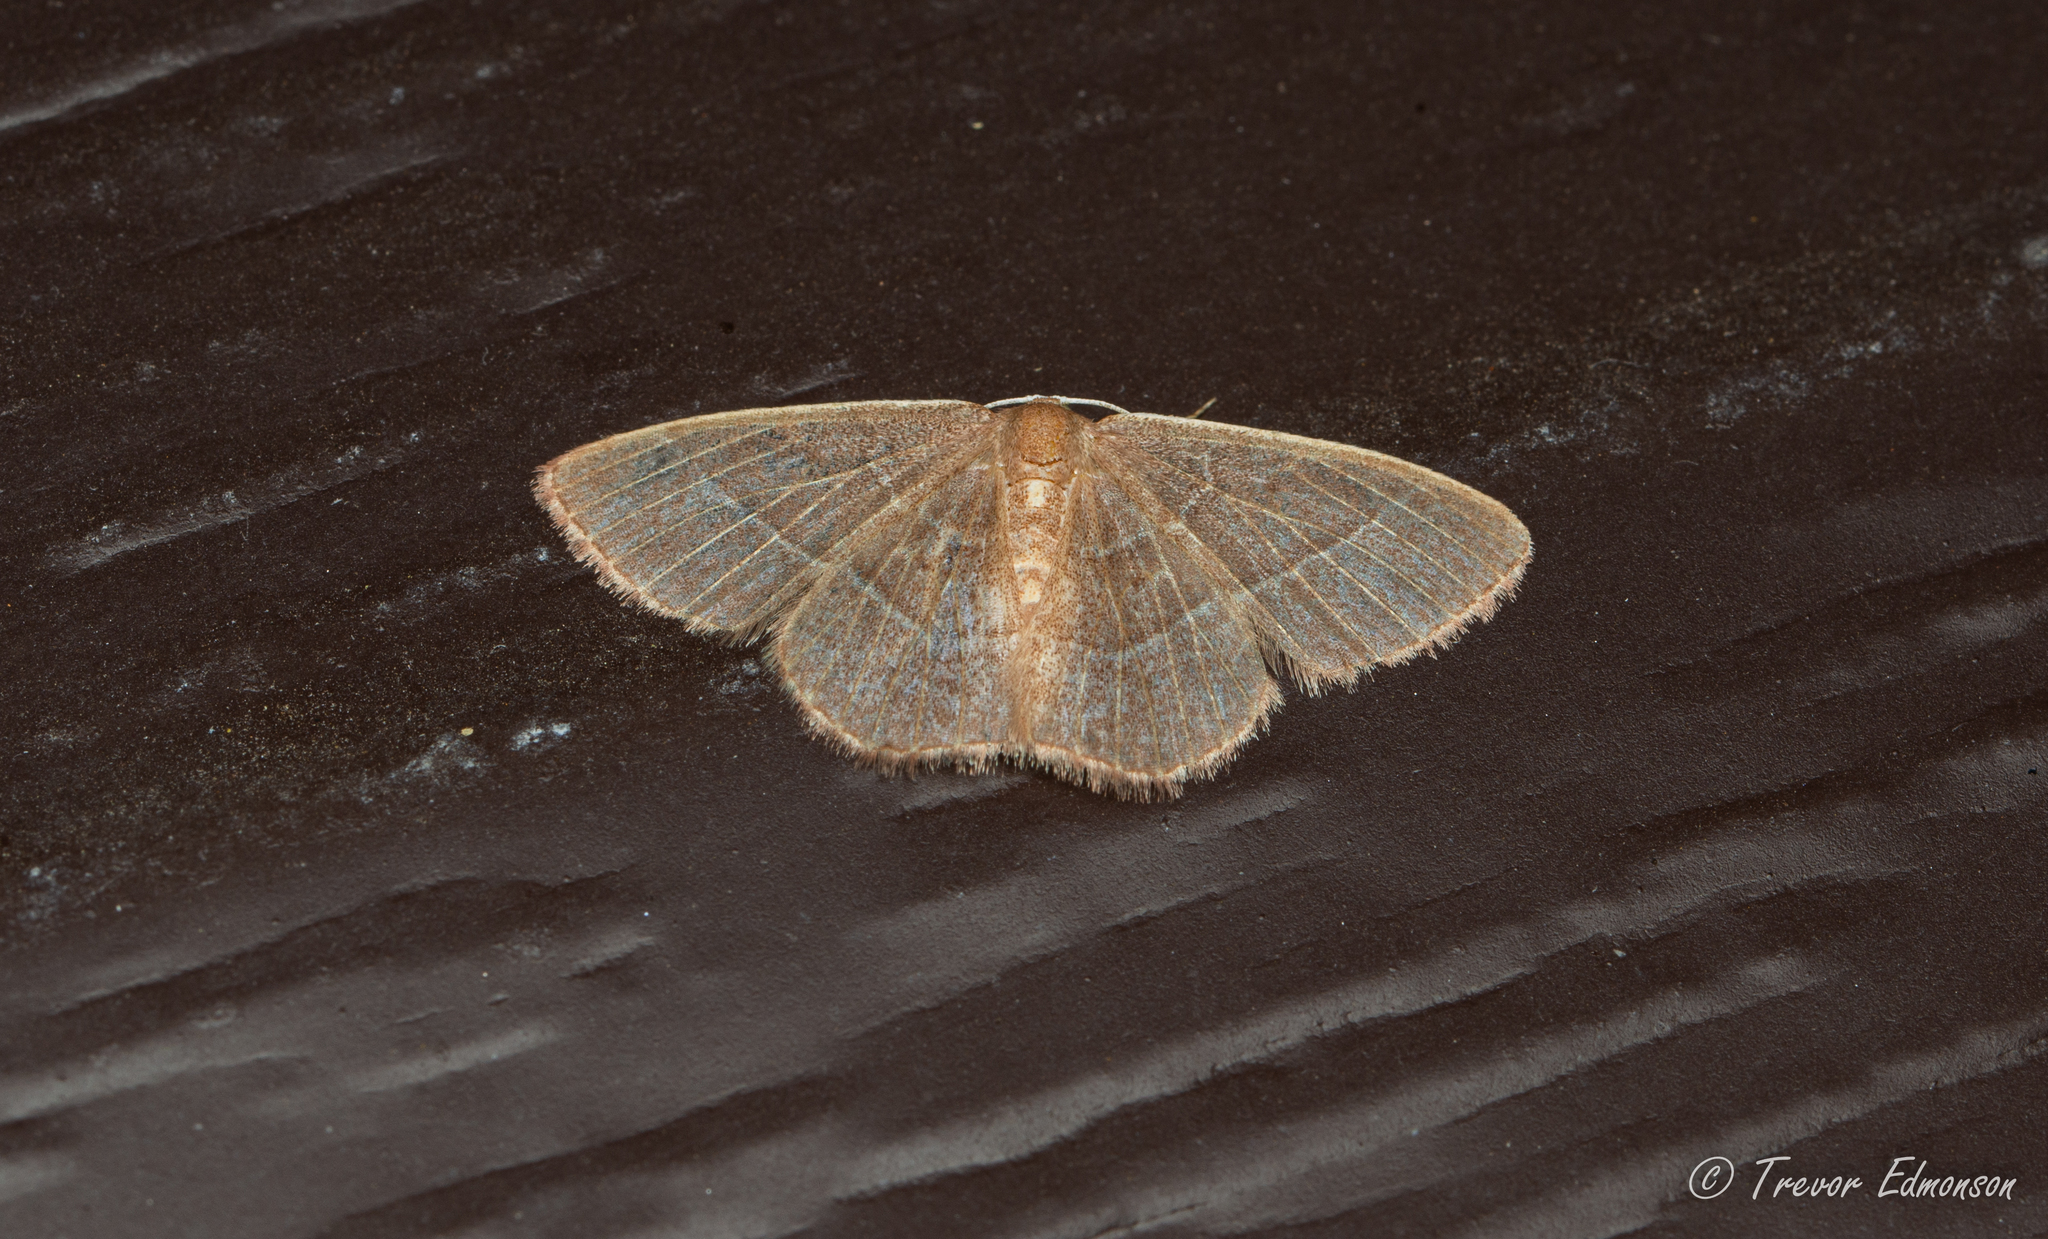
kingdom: Animalia
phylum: Arthropoda
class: Insecta
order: Lepidoptera
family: Geometridae
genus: Nemoria
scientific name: Nemoria bistriaria
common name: Red-fringed emerald
